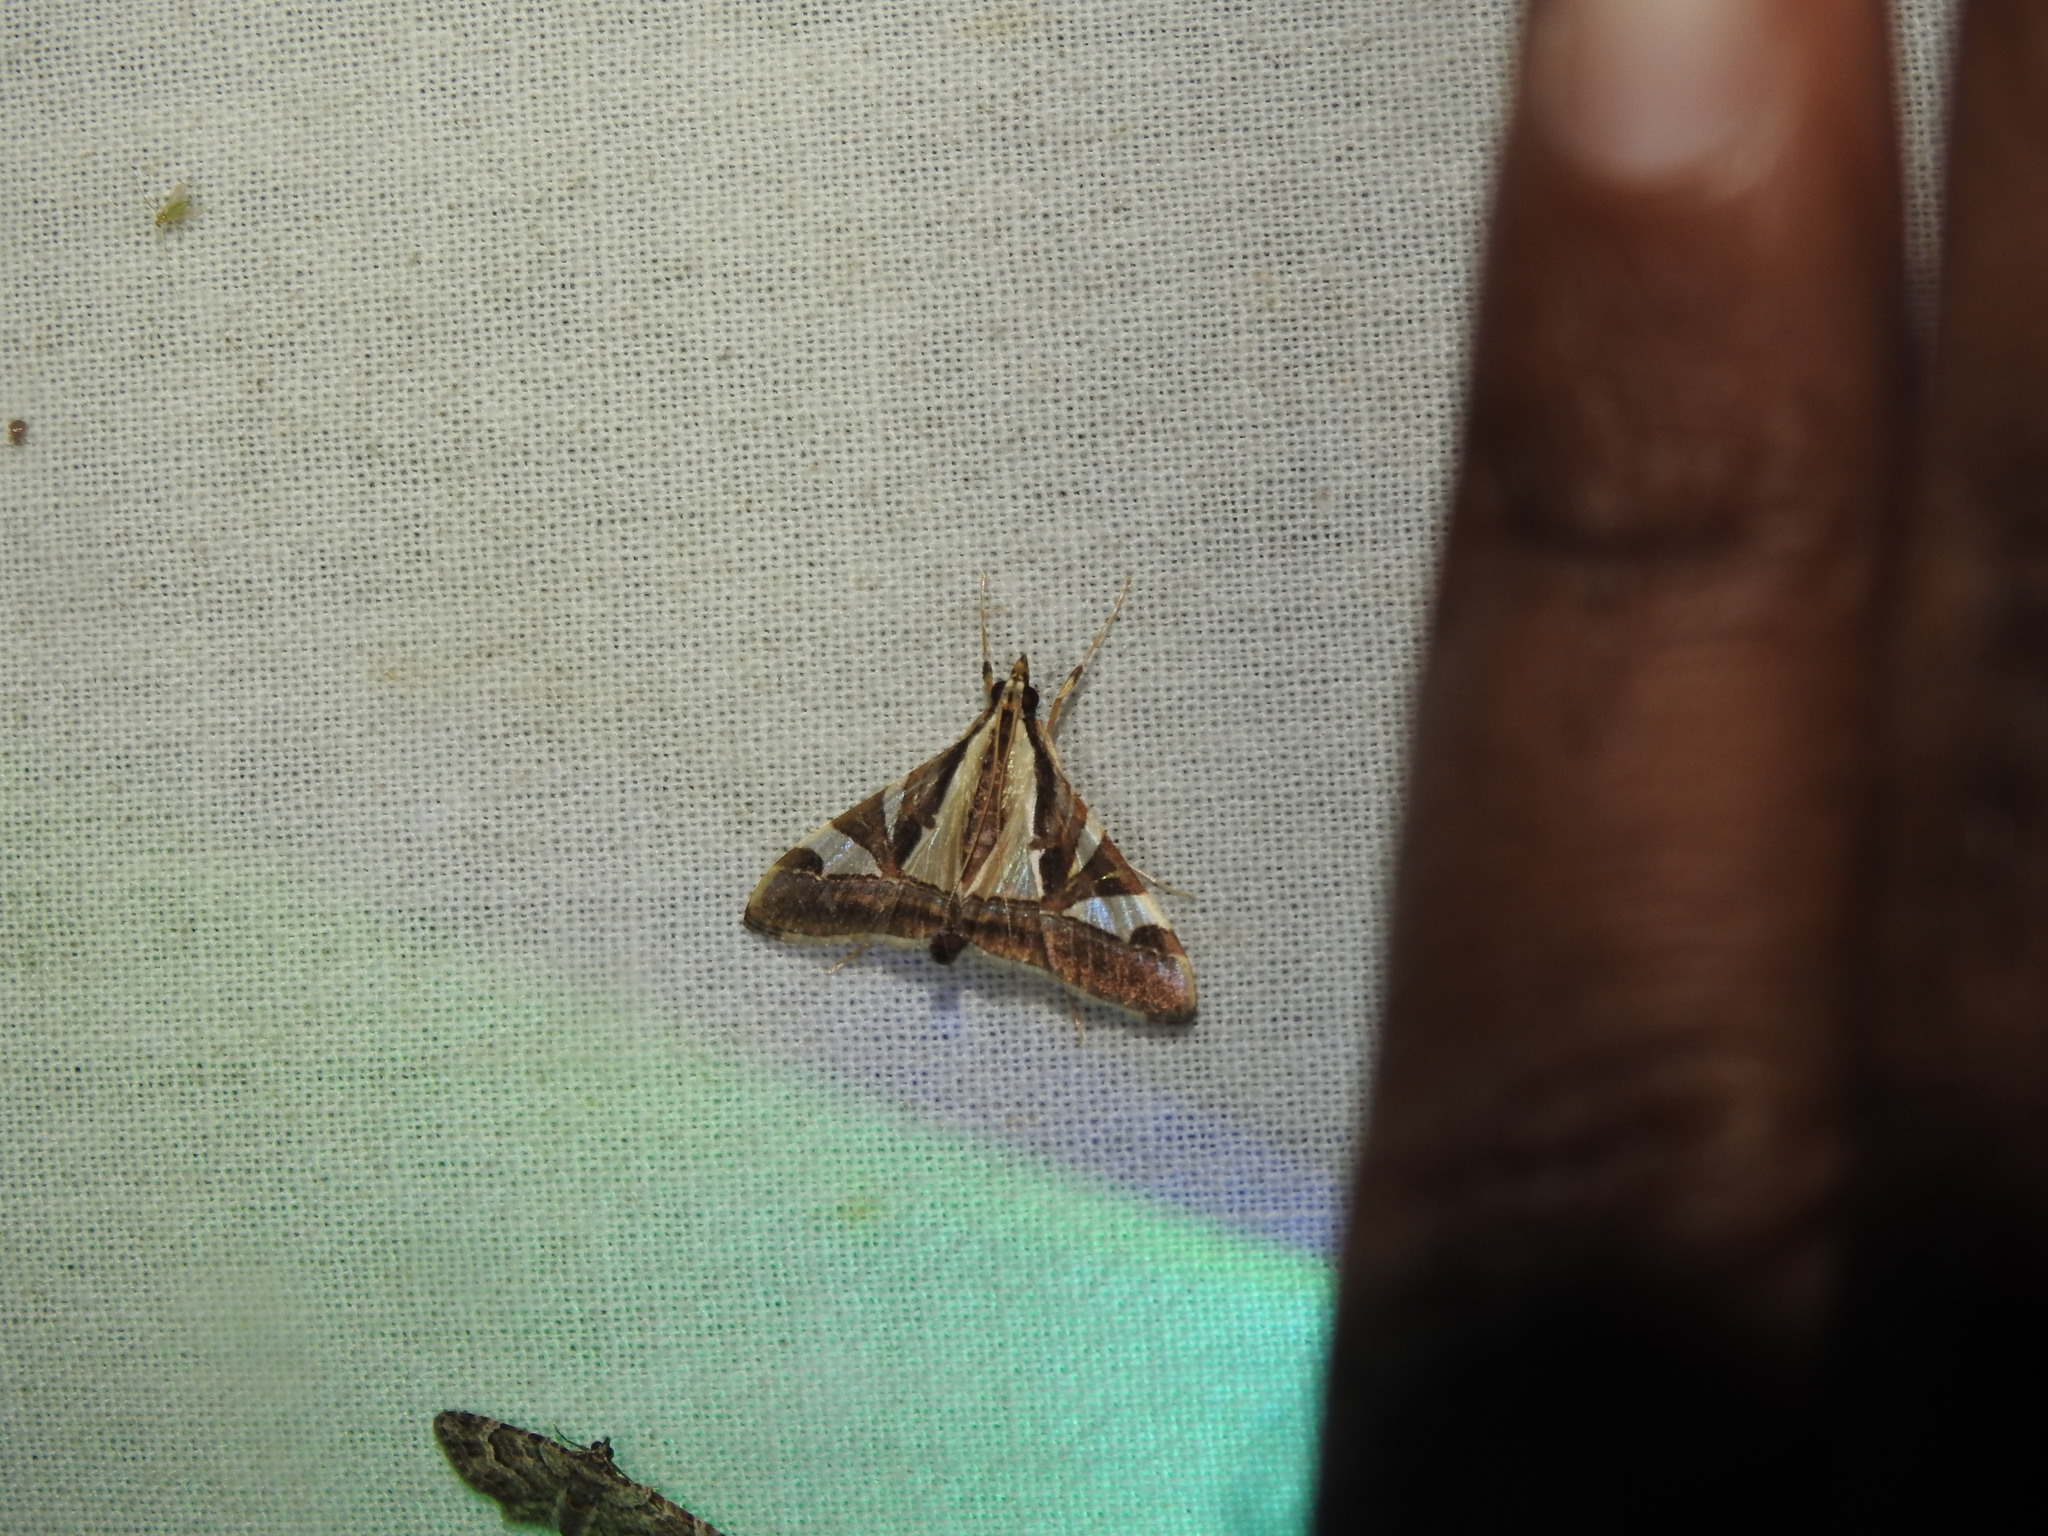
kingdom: Animalia
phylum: Arthropoda
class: Insecta
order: Lepidoptera
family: Crambidae
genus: Glyphodes
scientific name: Glyphodes bivitralis
